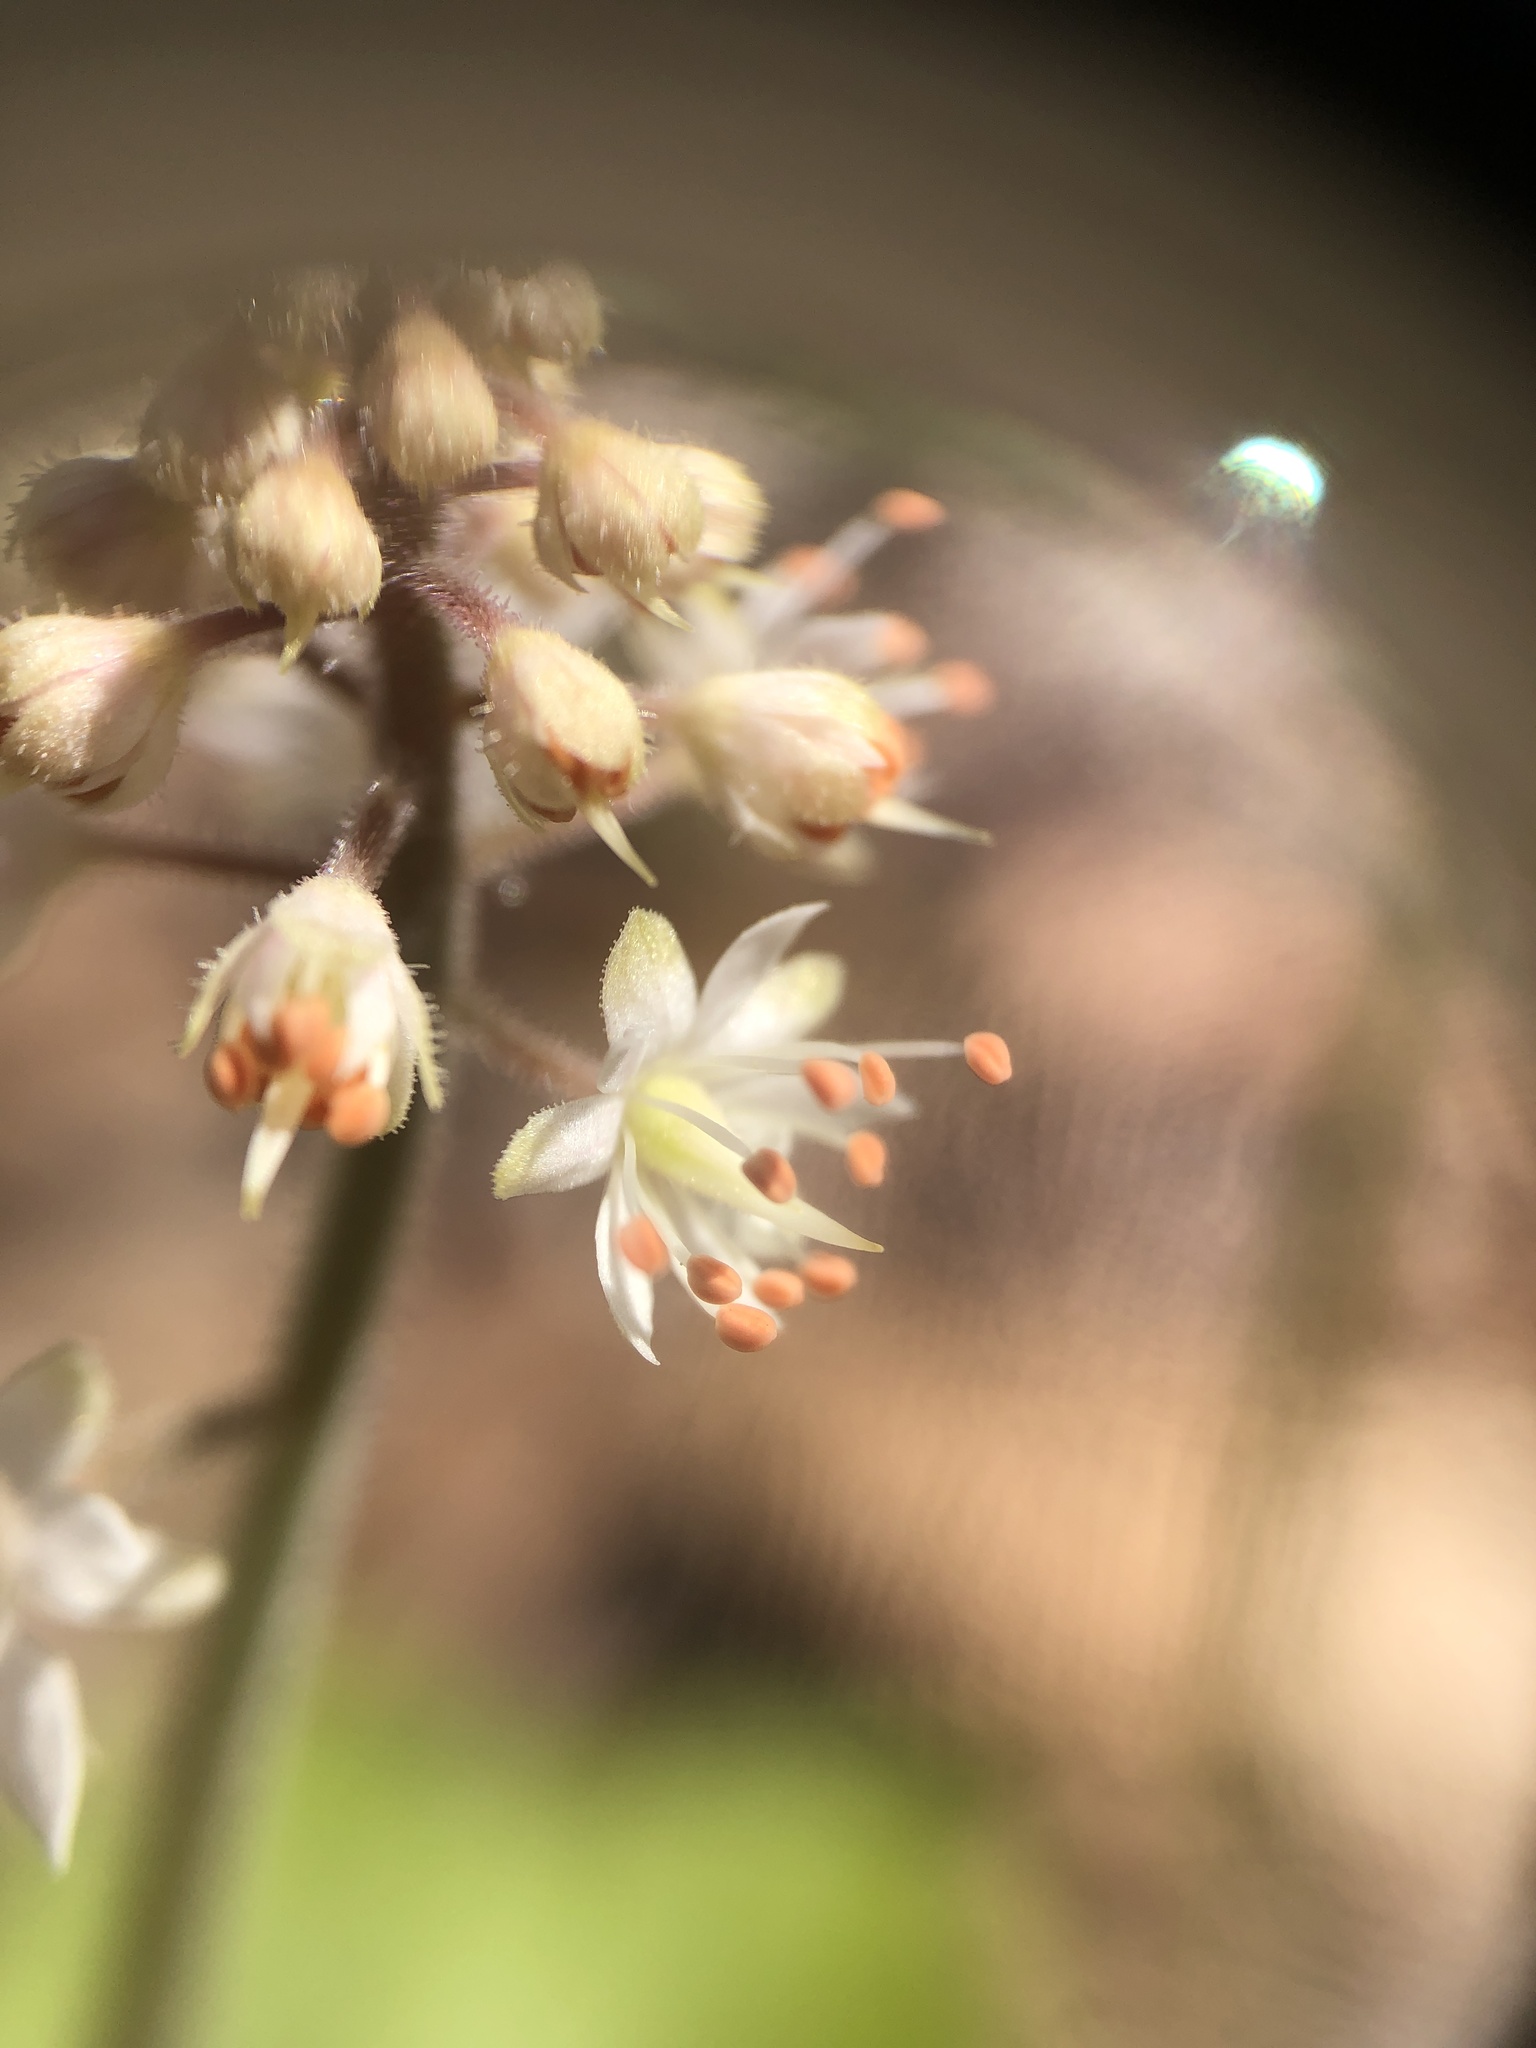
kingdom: Plantae
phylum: Tracheophyta
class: Magnoliopsida
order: Saxifragales
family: Saxifragaceae
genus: Tiarella
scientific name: Tiarella stolonifera
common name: Stoloniferous foamflower
